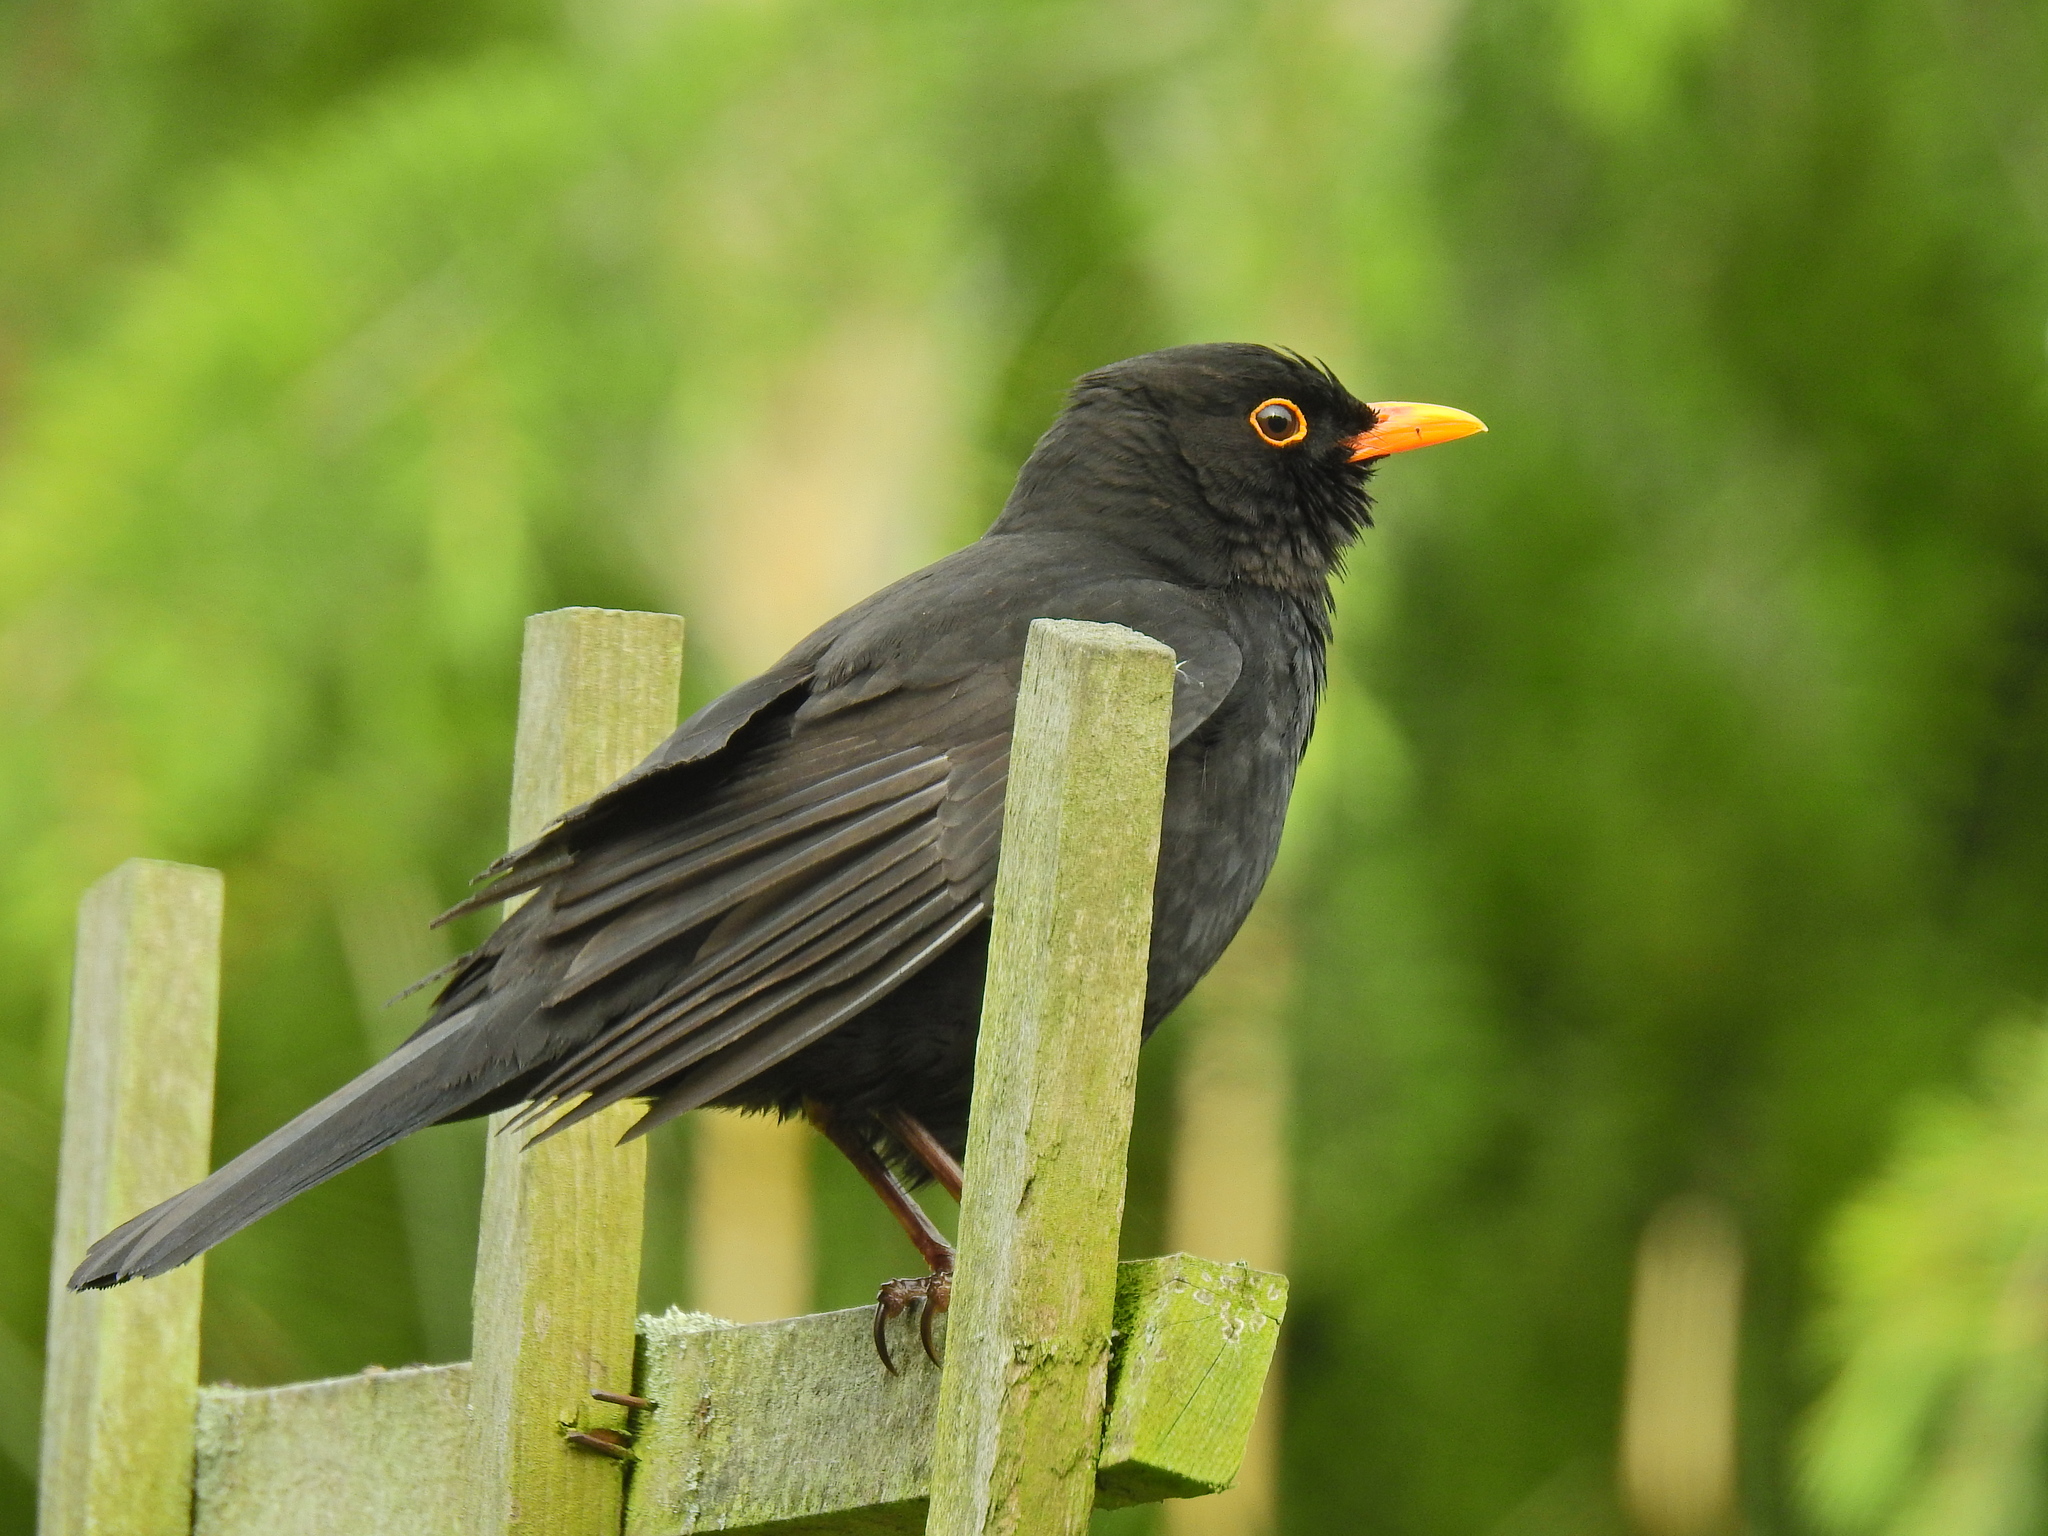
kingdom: Animalia
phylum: Chordata
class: Aves
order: Passeriformes
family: Turdidae
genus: Turdus
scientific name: Turdus merula
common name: Common blackbird
